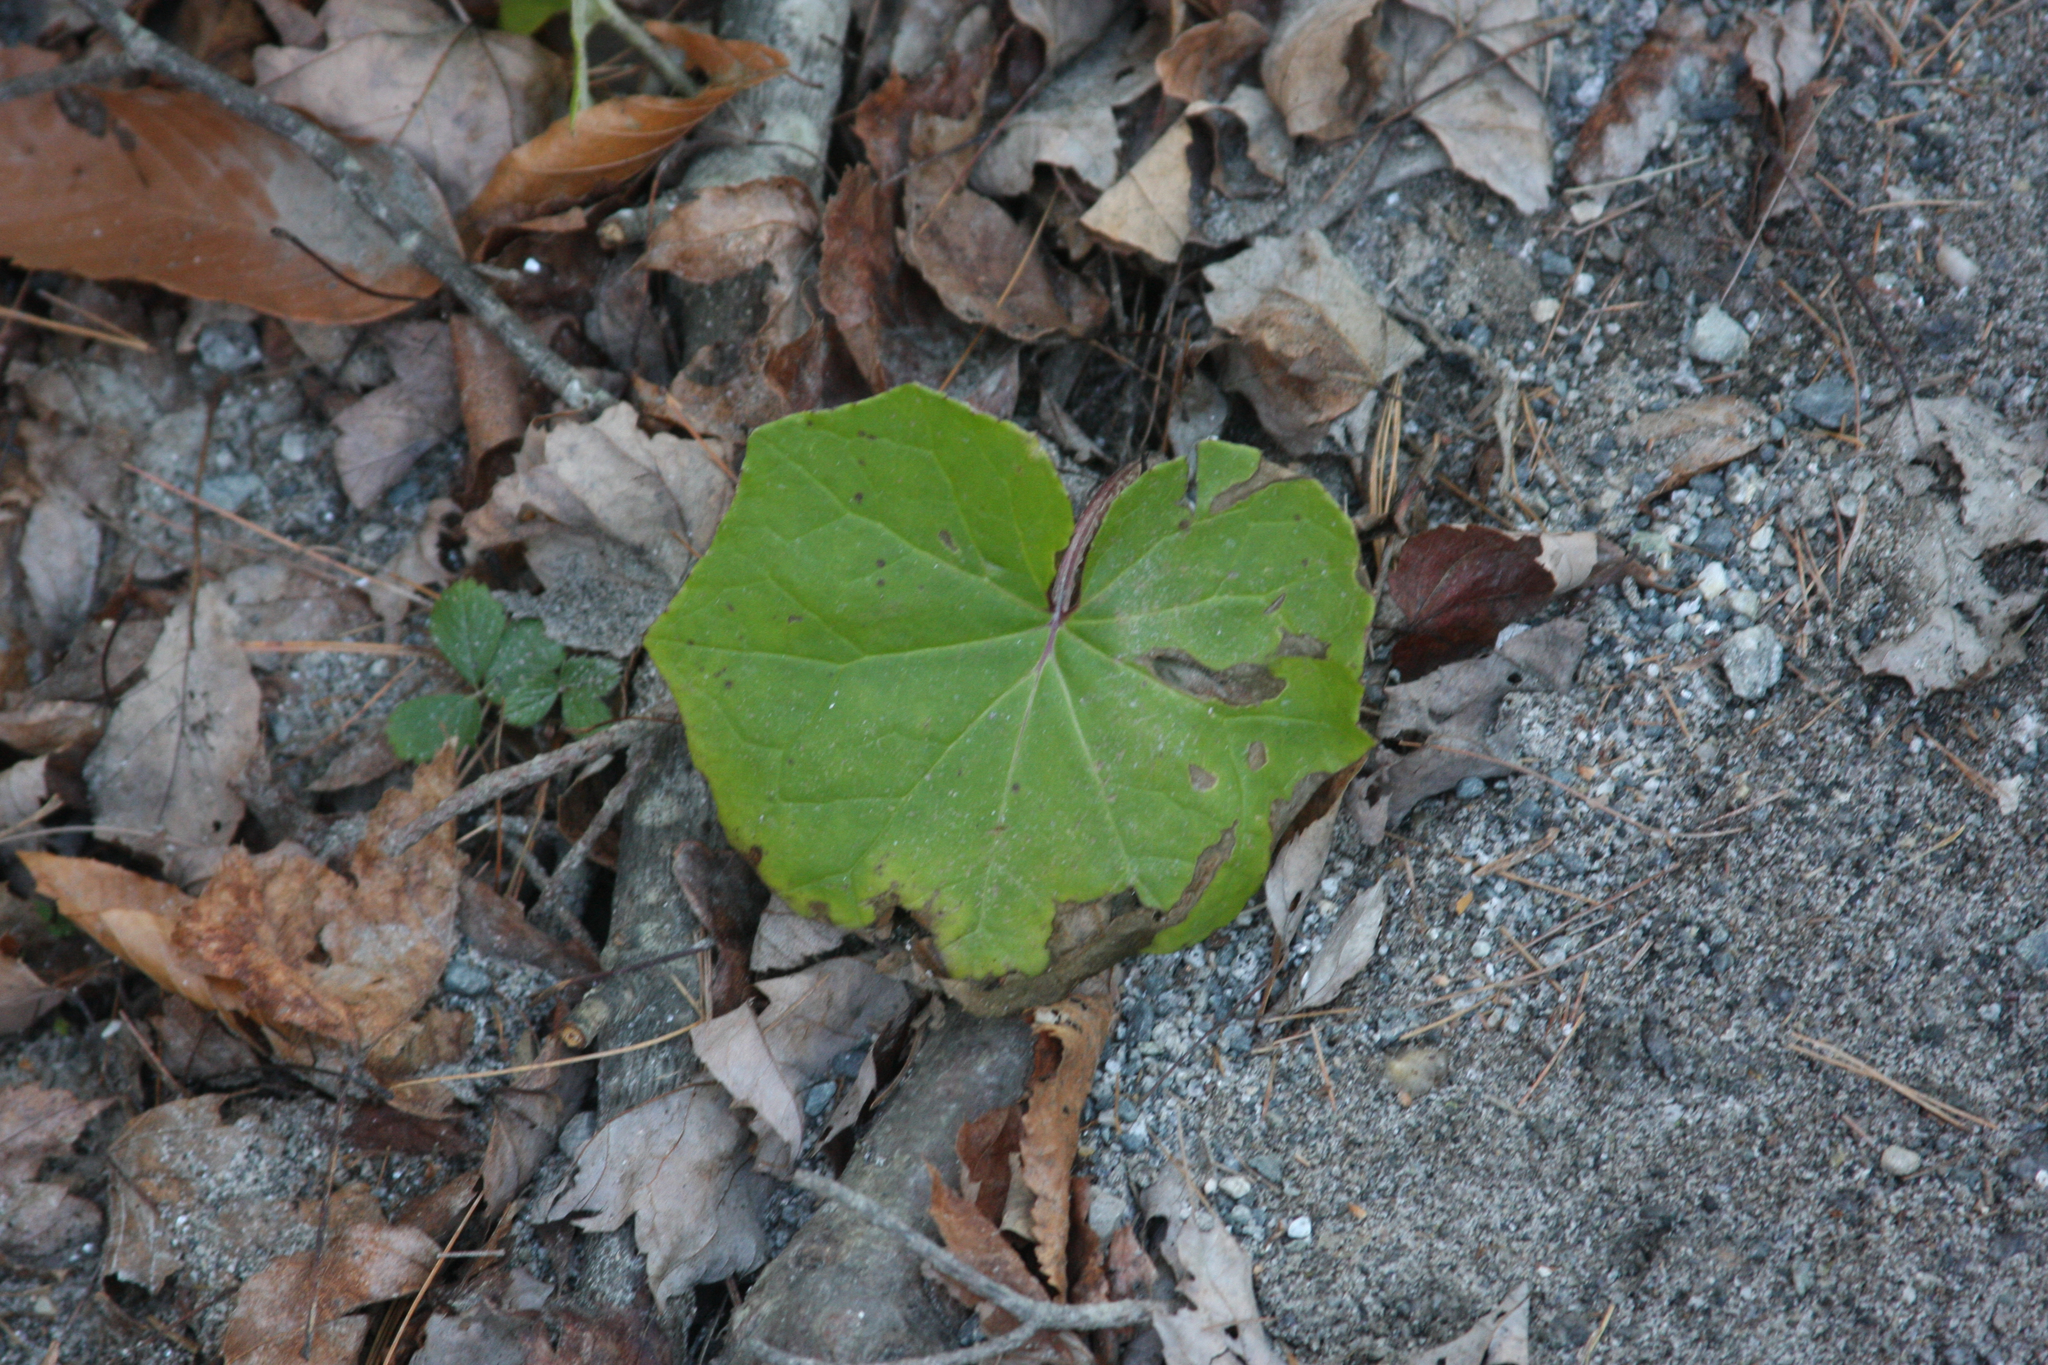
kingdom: Plantae
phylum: Tracheophyta
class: Magnoliopsida
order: Asterales
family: Asteraceae
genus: Tussilago
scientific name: Tussilago farfara
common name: Coltsfoot
